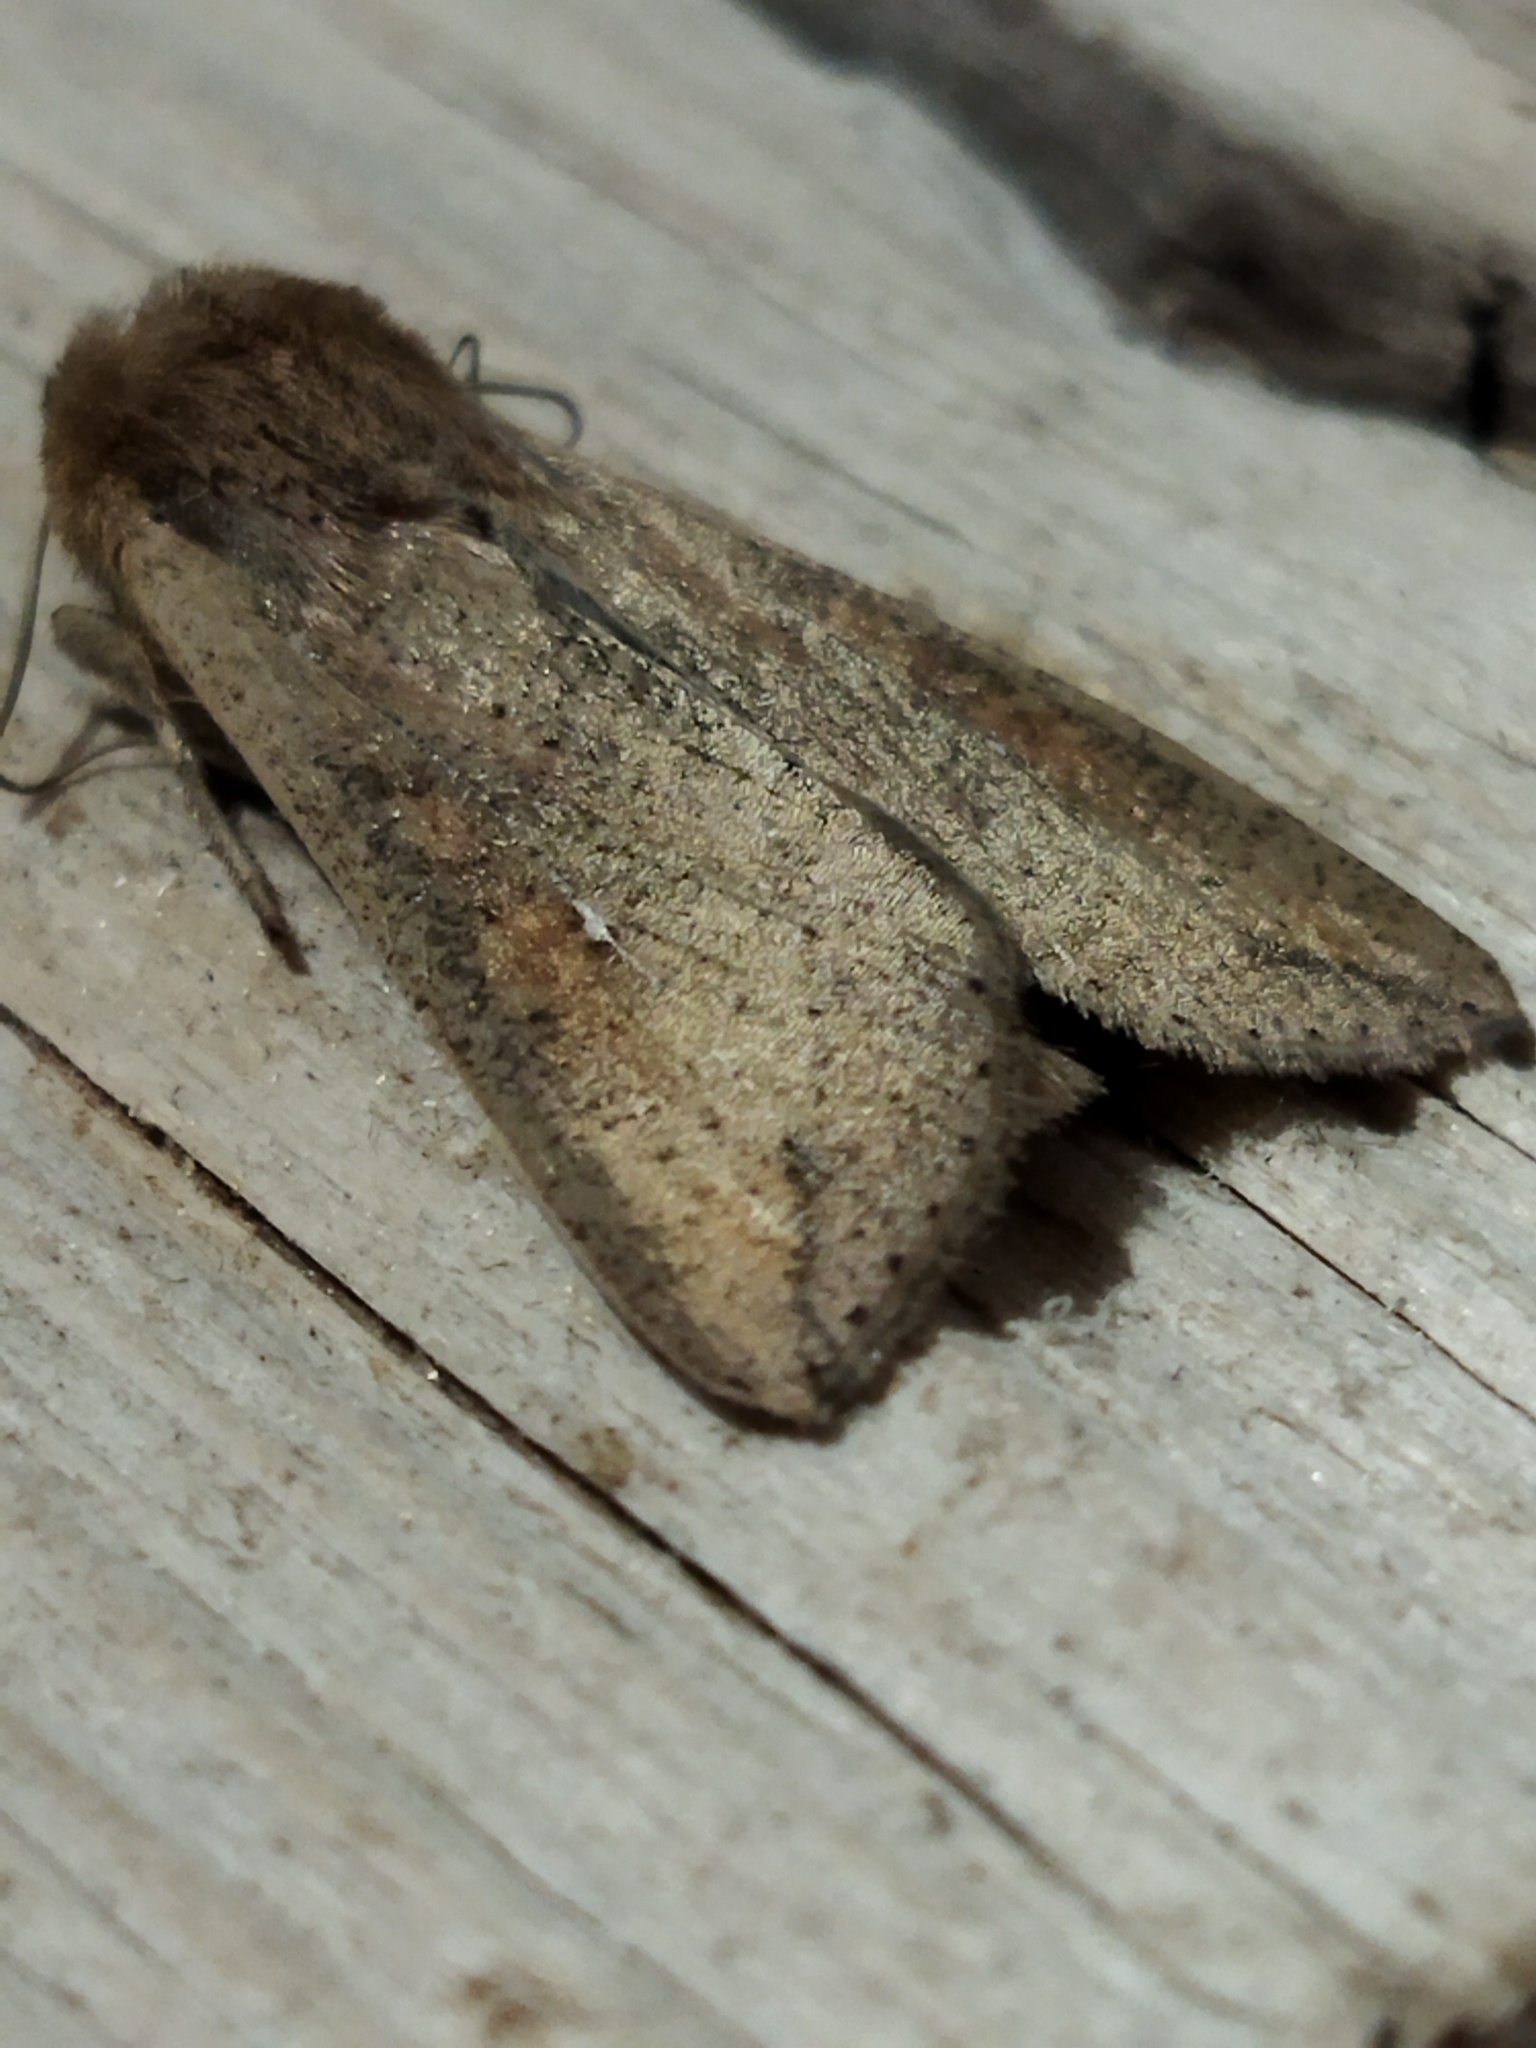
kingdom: Animalia
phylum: Arthropoda
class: Insecta
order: Lepidoptera
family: Noctuidae
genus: Mythimna
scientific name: Mythimna unipuncta
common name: White-speck
